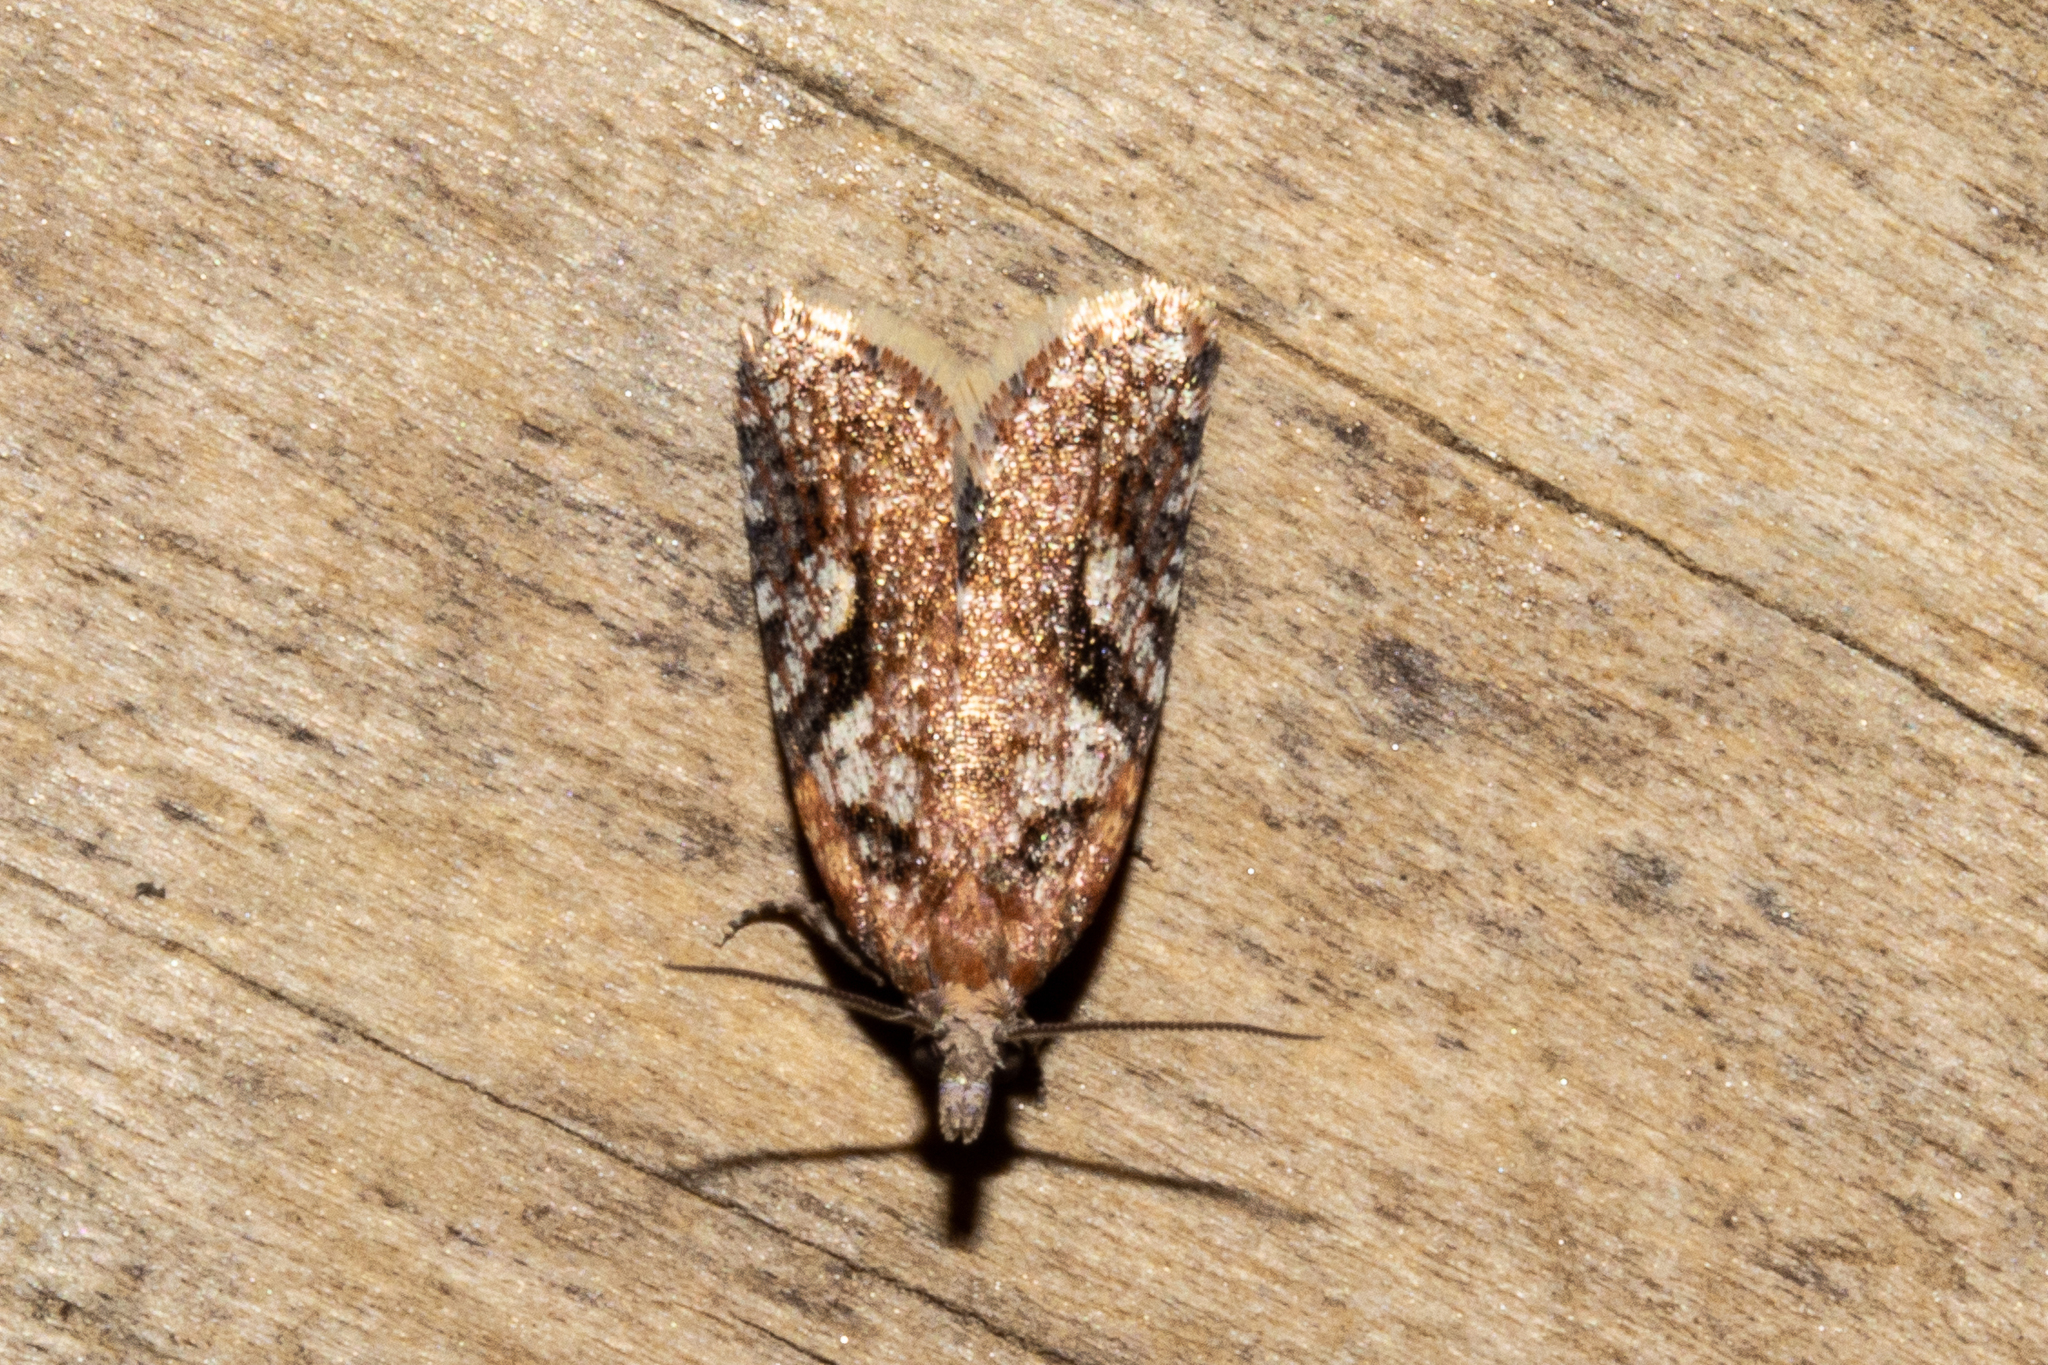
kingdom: Animalia
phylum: Arthropoda
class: Insecta
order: Lepidoptera
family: Tortricidae
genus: Capua
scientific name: Capua semiferana
